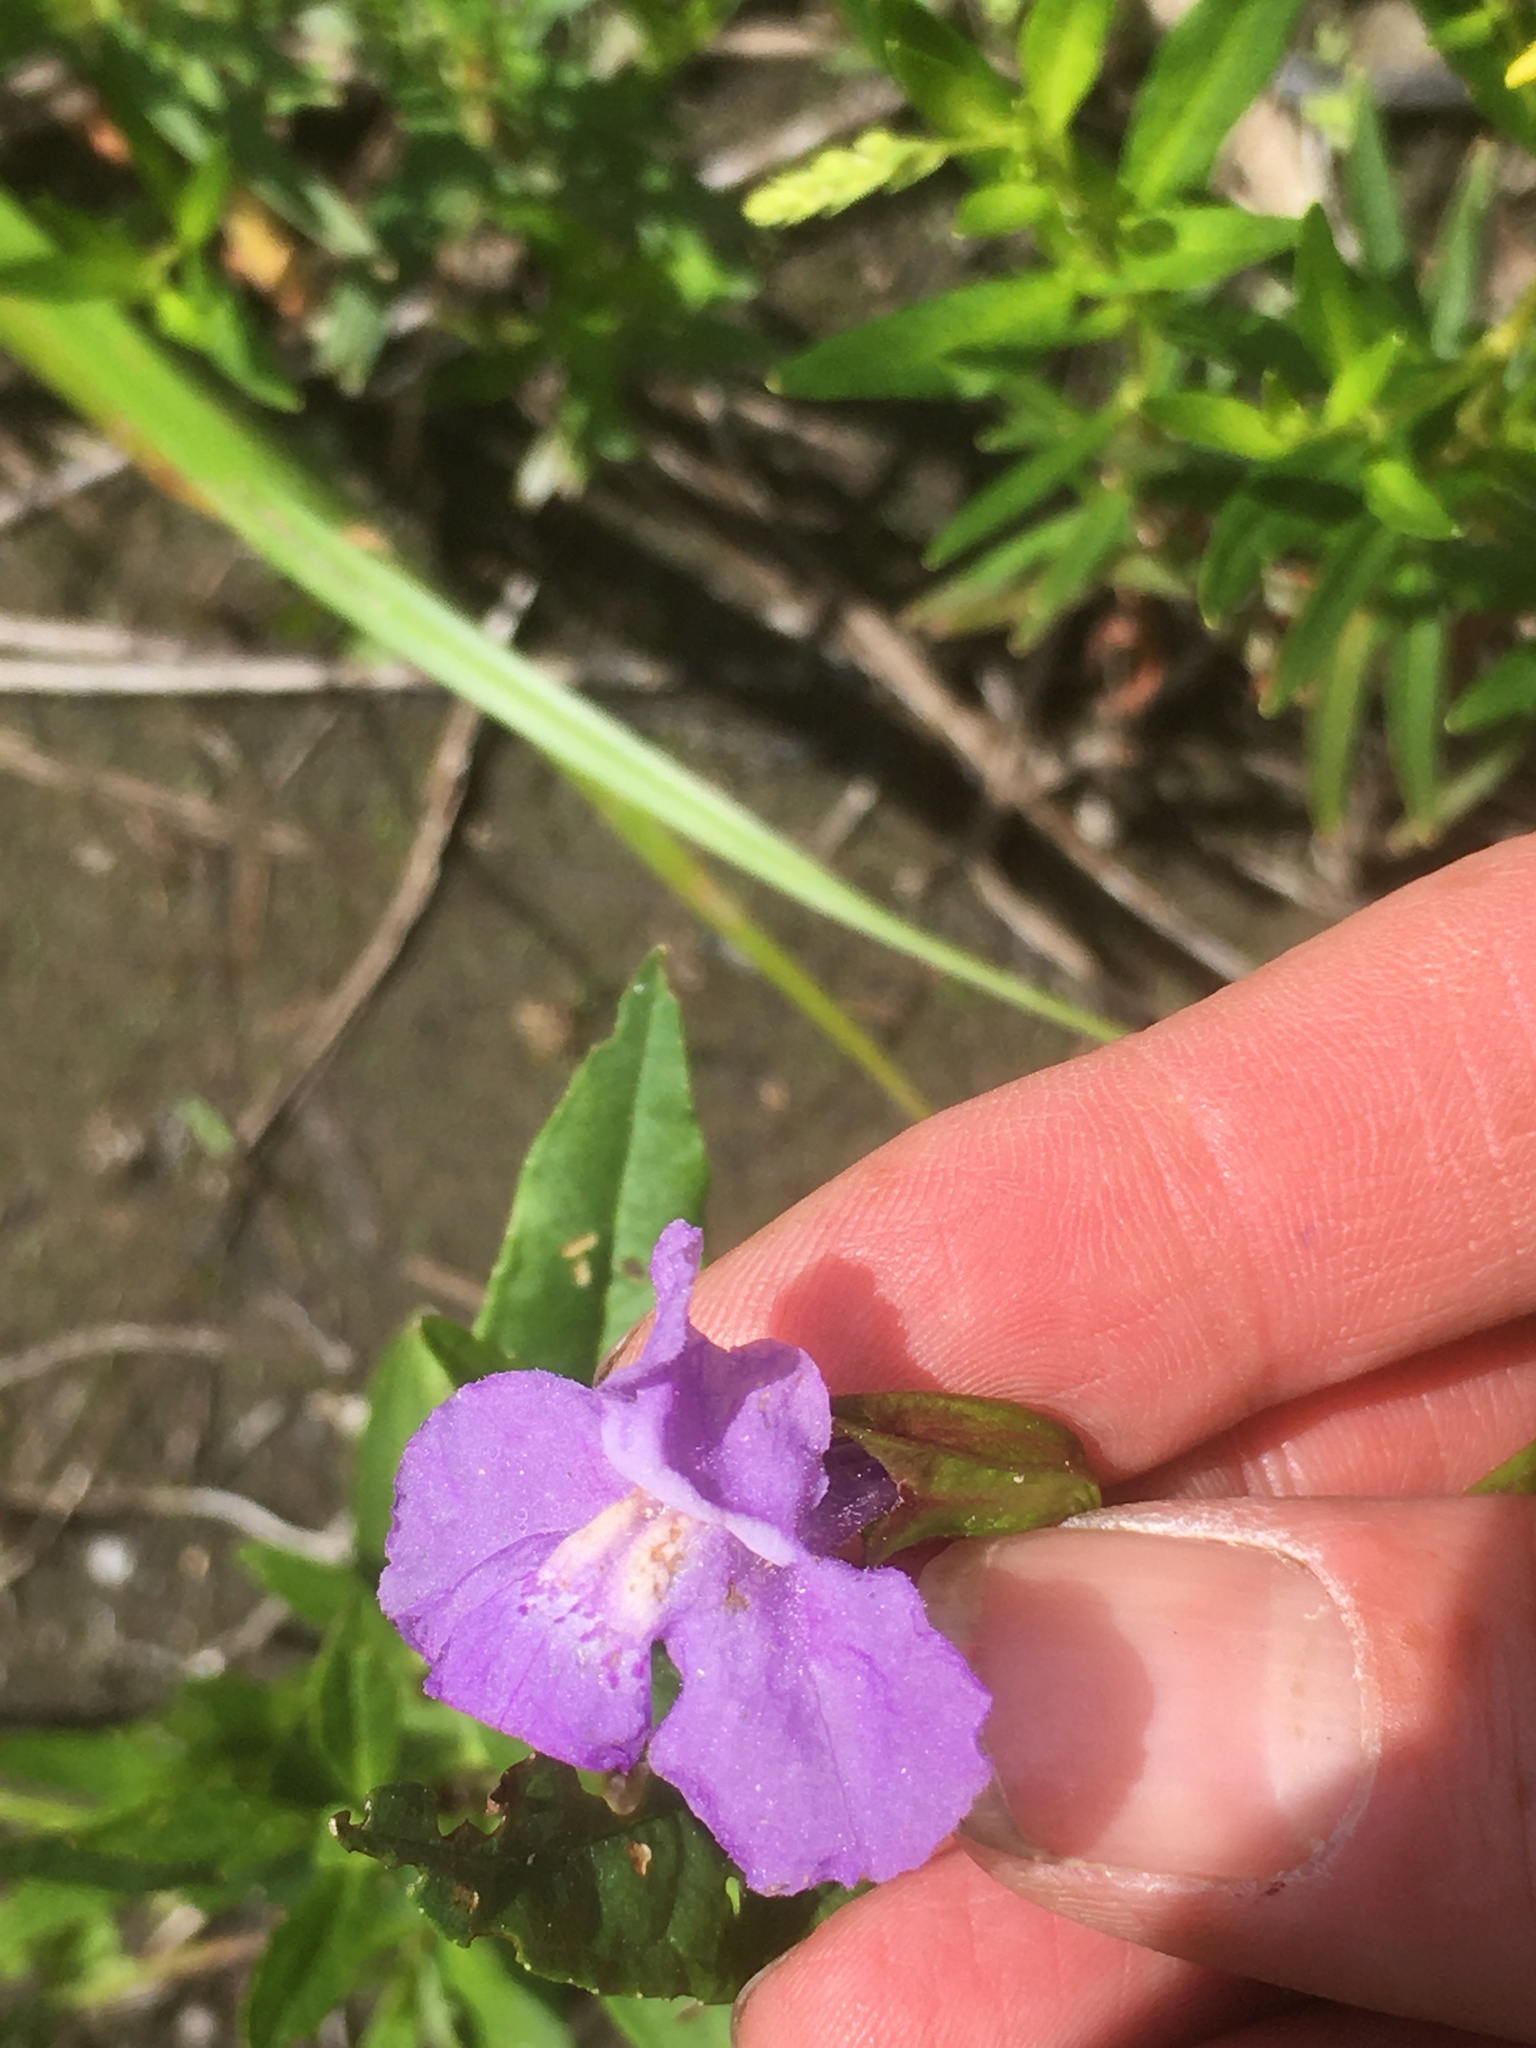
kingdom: Plantae
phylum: Tracheophyta
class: Magnoliopsida
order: Lamiales
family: Phrymaceae
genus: Mimulus
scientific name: Mimulus ringens
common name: Allegheny monkeyflower
